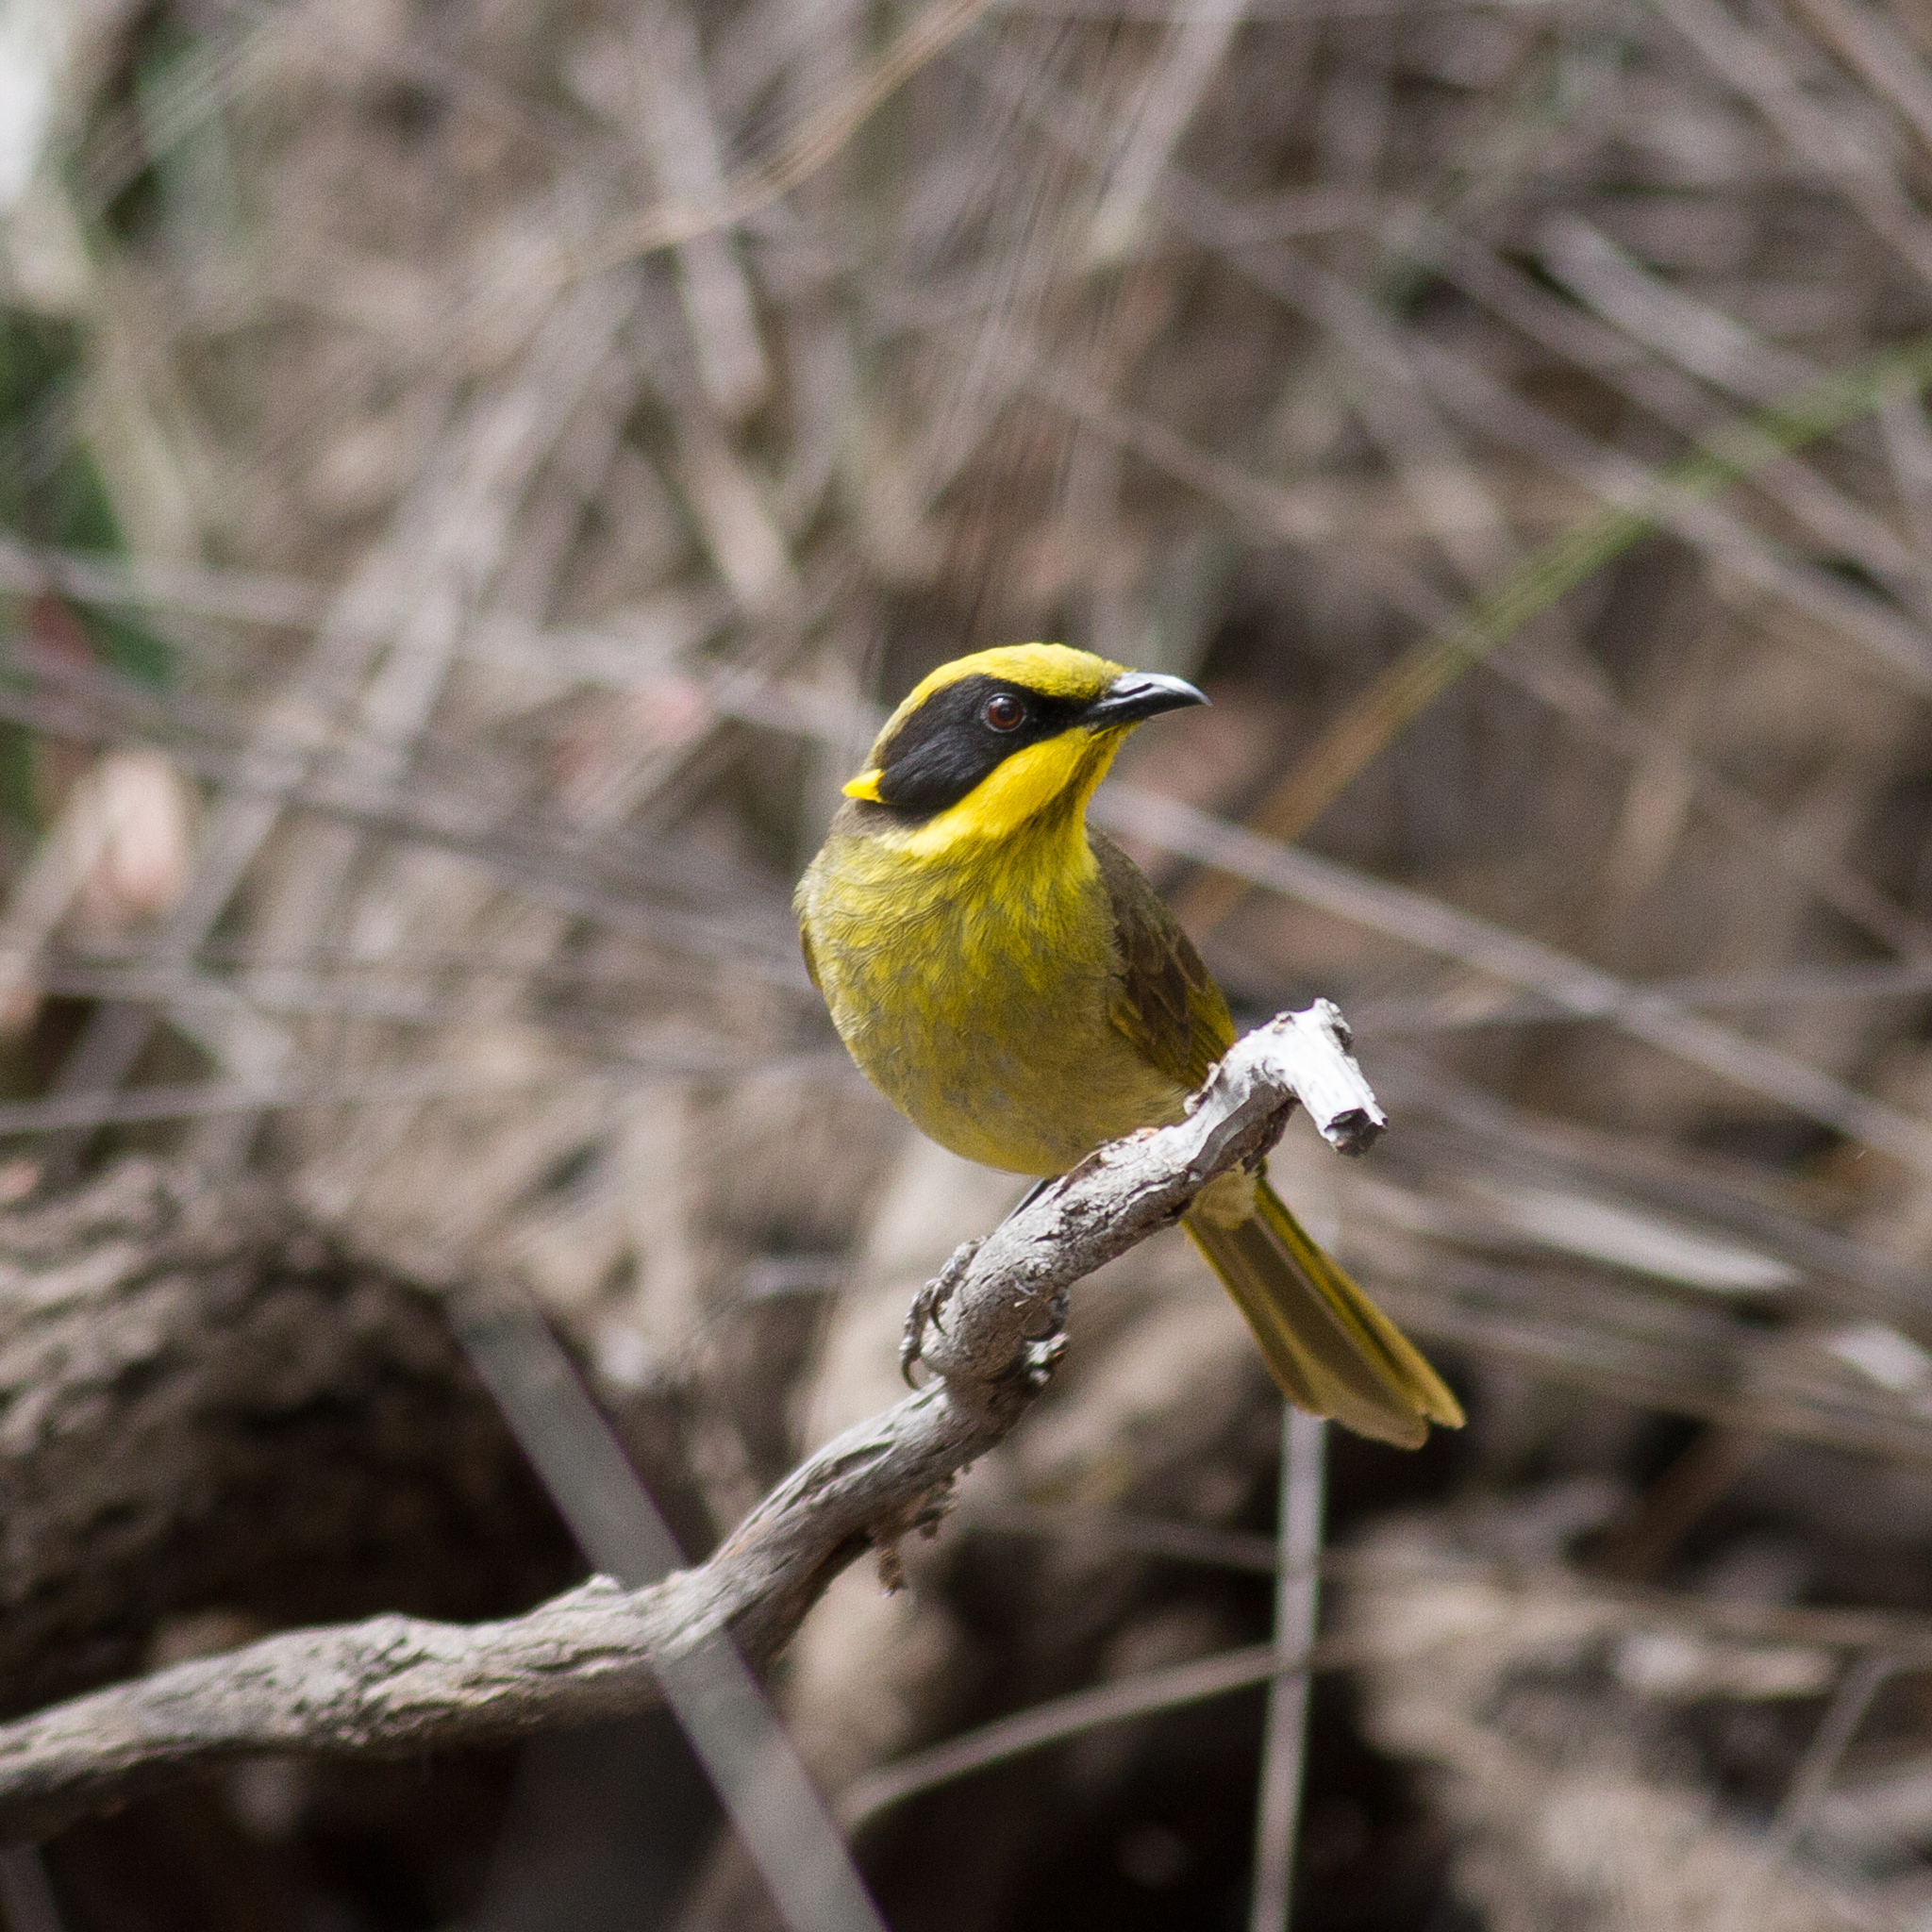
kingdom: Animalia
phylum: Chordata
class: Aves
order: Passeriformes
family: Meliphagidae
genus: Lichenostomus
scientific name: Lichenostomus melanops
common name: Yellow-tufted honeyeater
